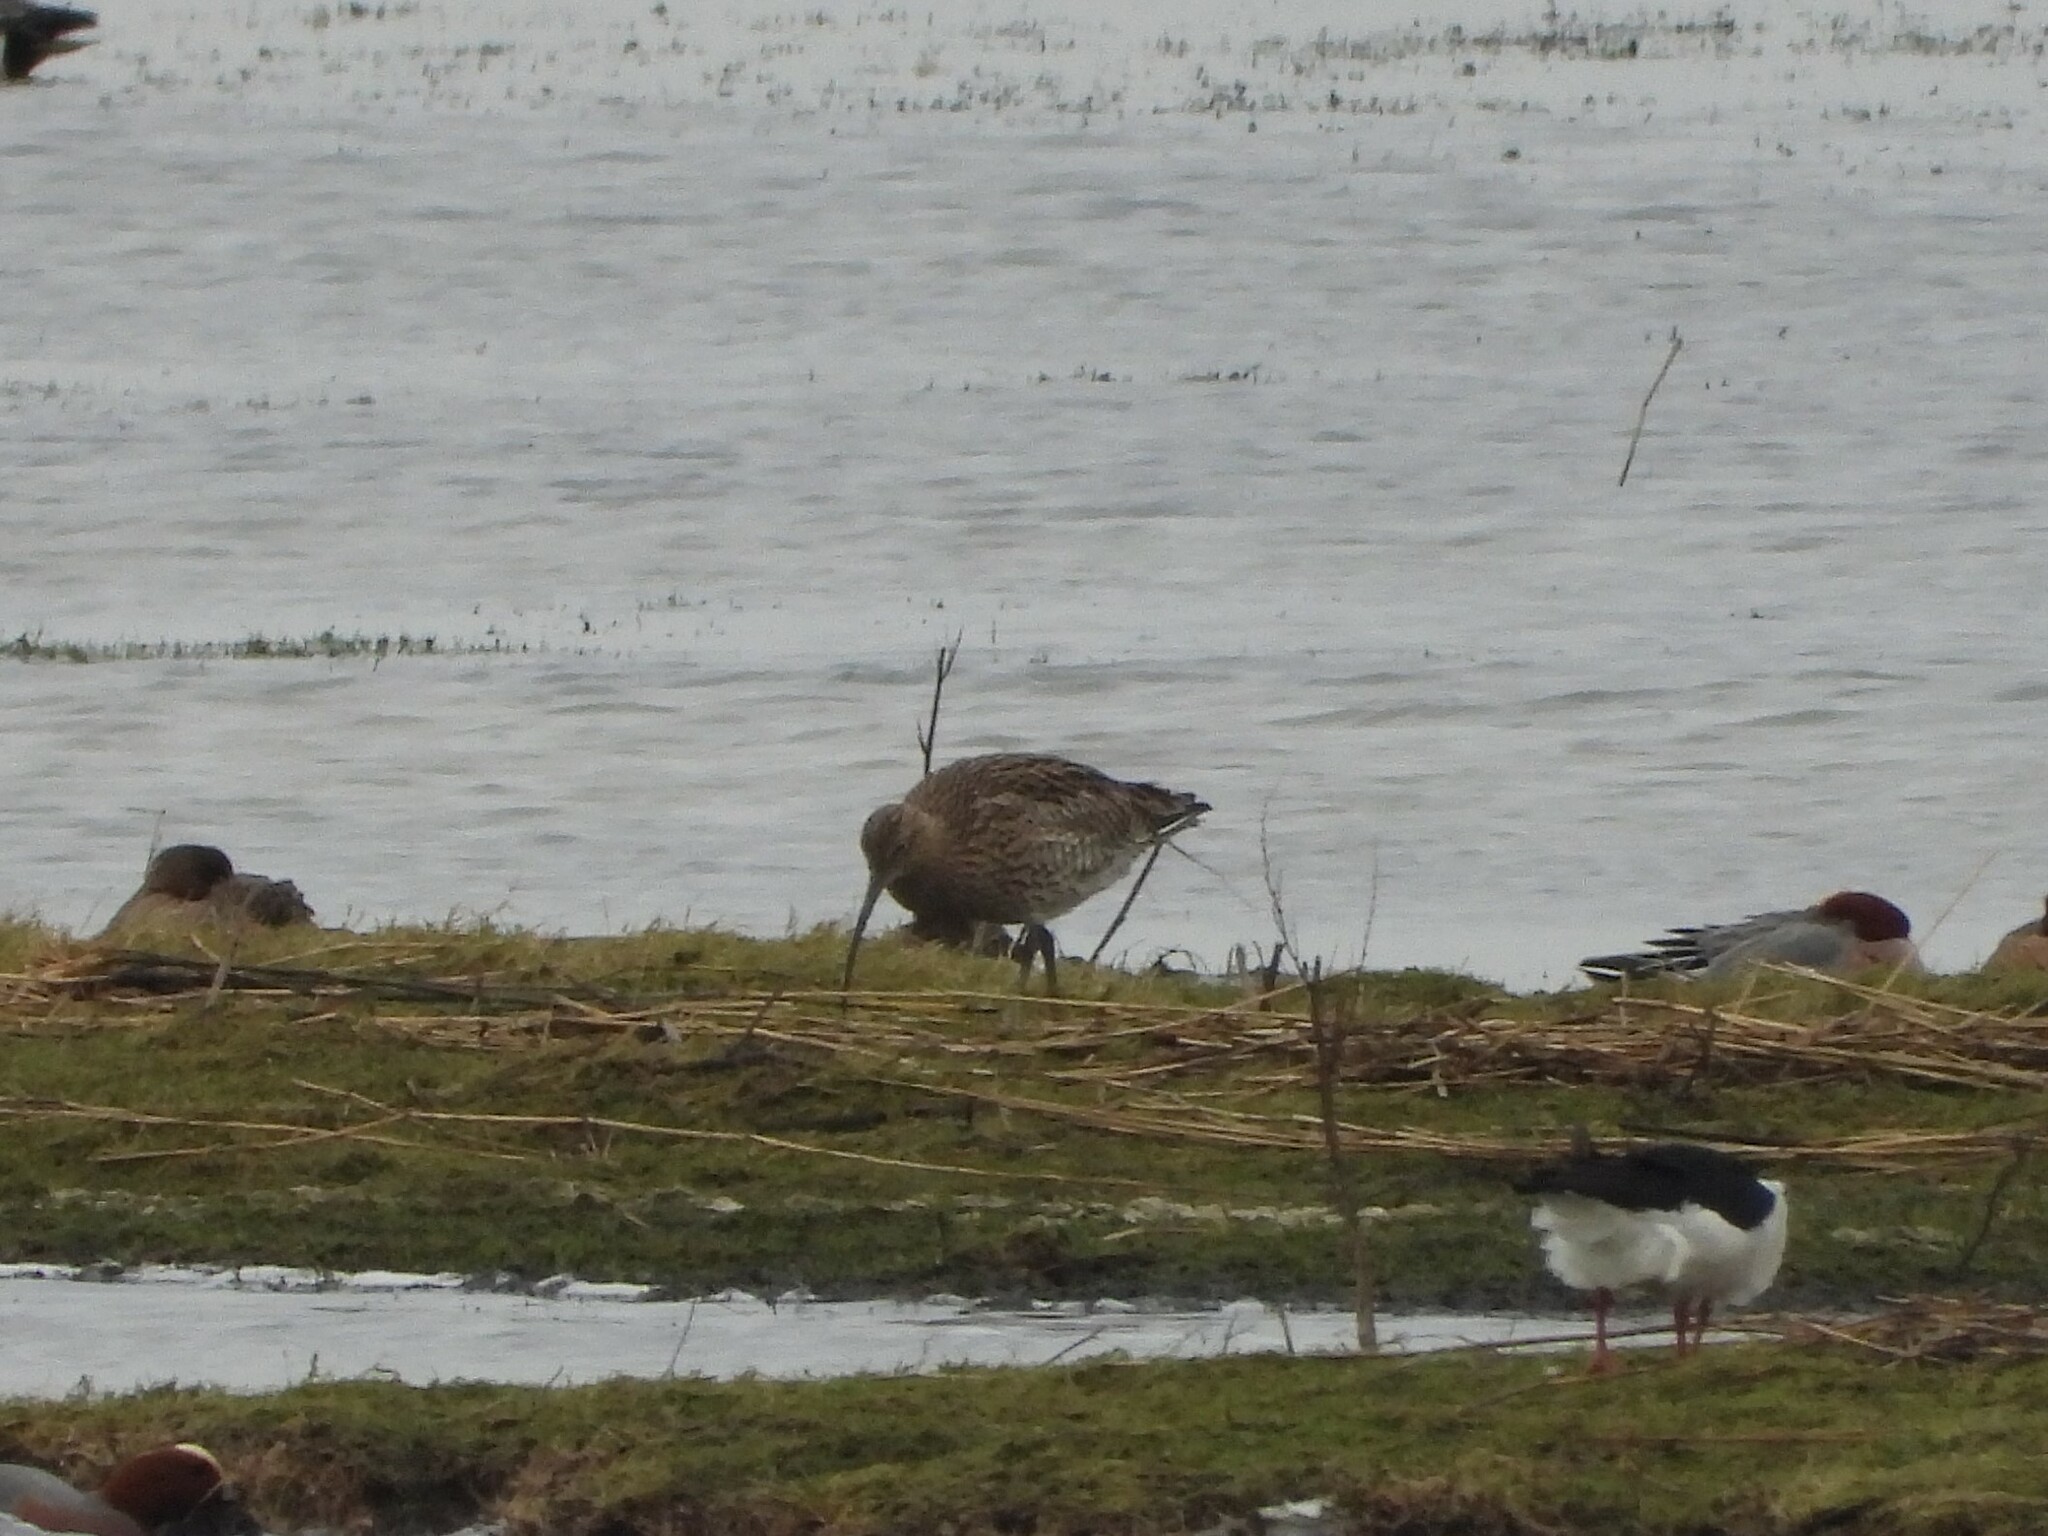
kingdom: Animalia
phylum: Chordata
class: Aves
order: Charadriiformes
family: Scolopacidae
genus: Numenius
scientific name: Numenius arquata
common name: Eurasian curlew
